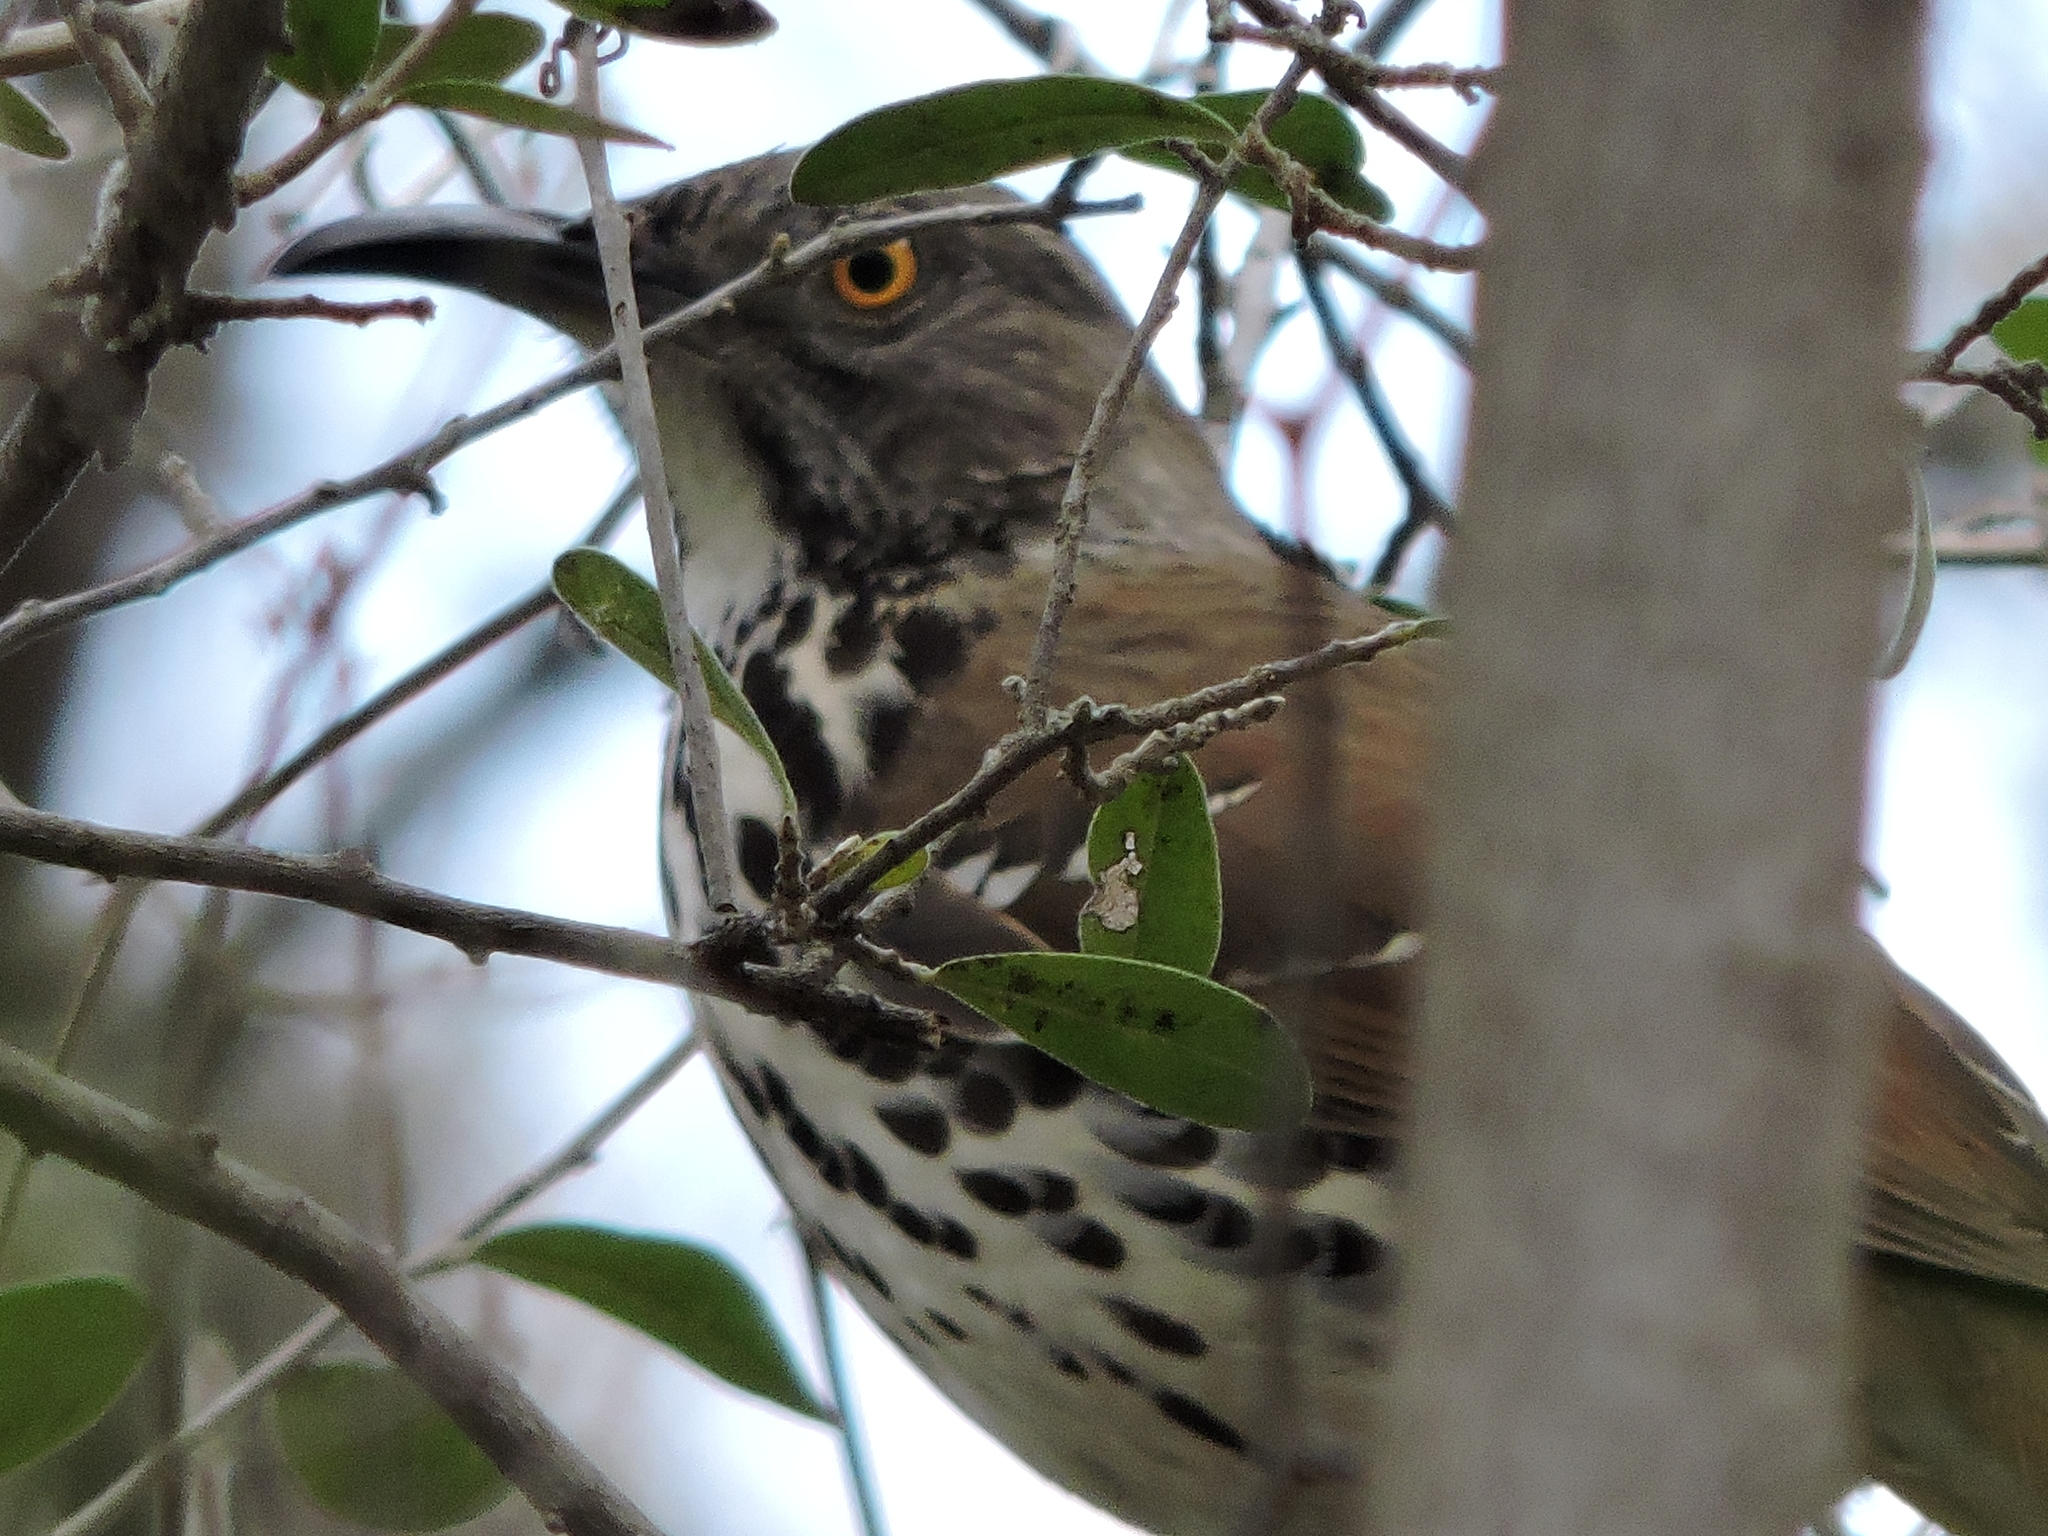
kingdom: Animalia
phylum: Chordata
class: Aves
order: Passeriformes
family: Mimidae
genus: Toxostoma
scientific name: Toxostoma longirostre
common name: Long-billed thrasher
